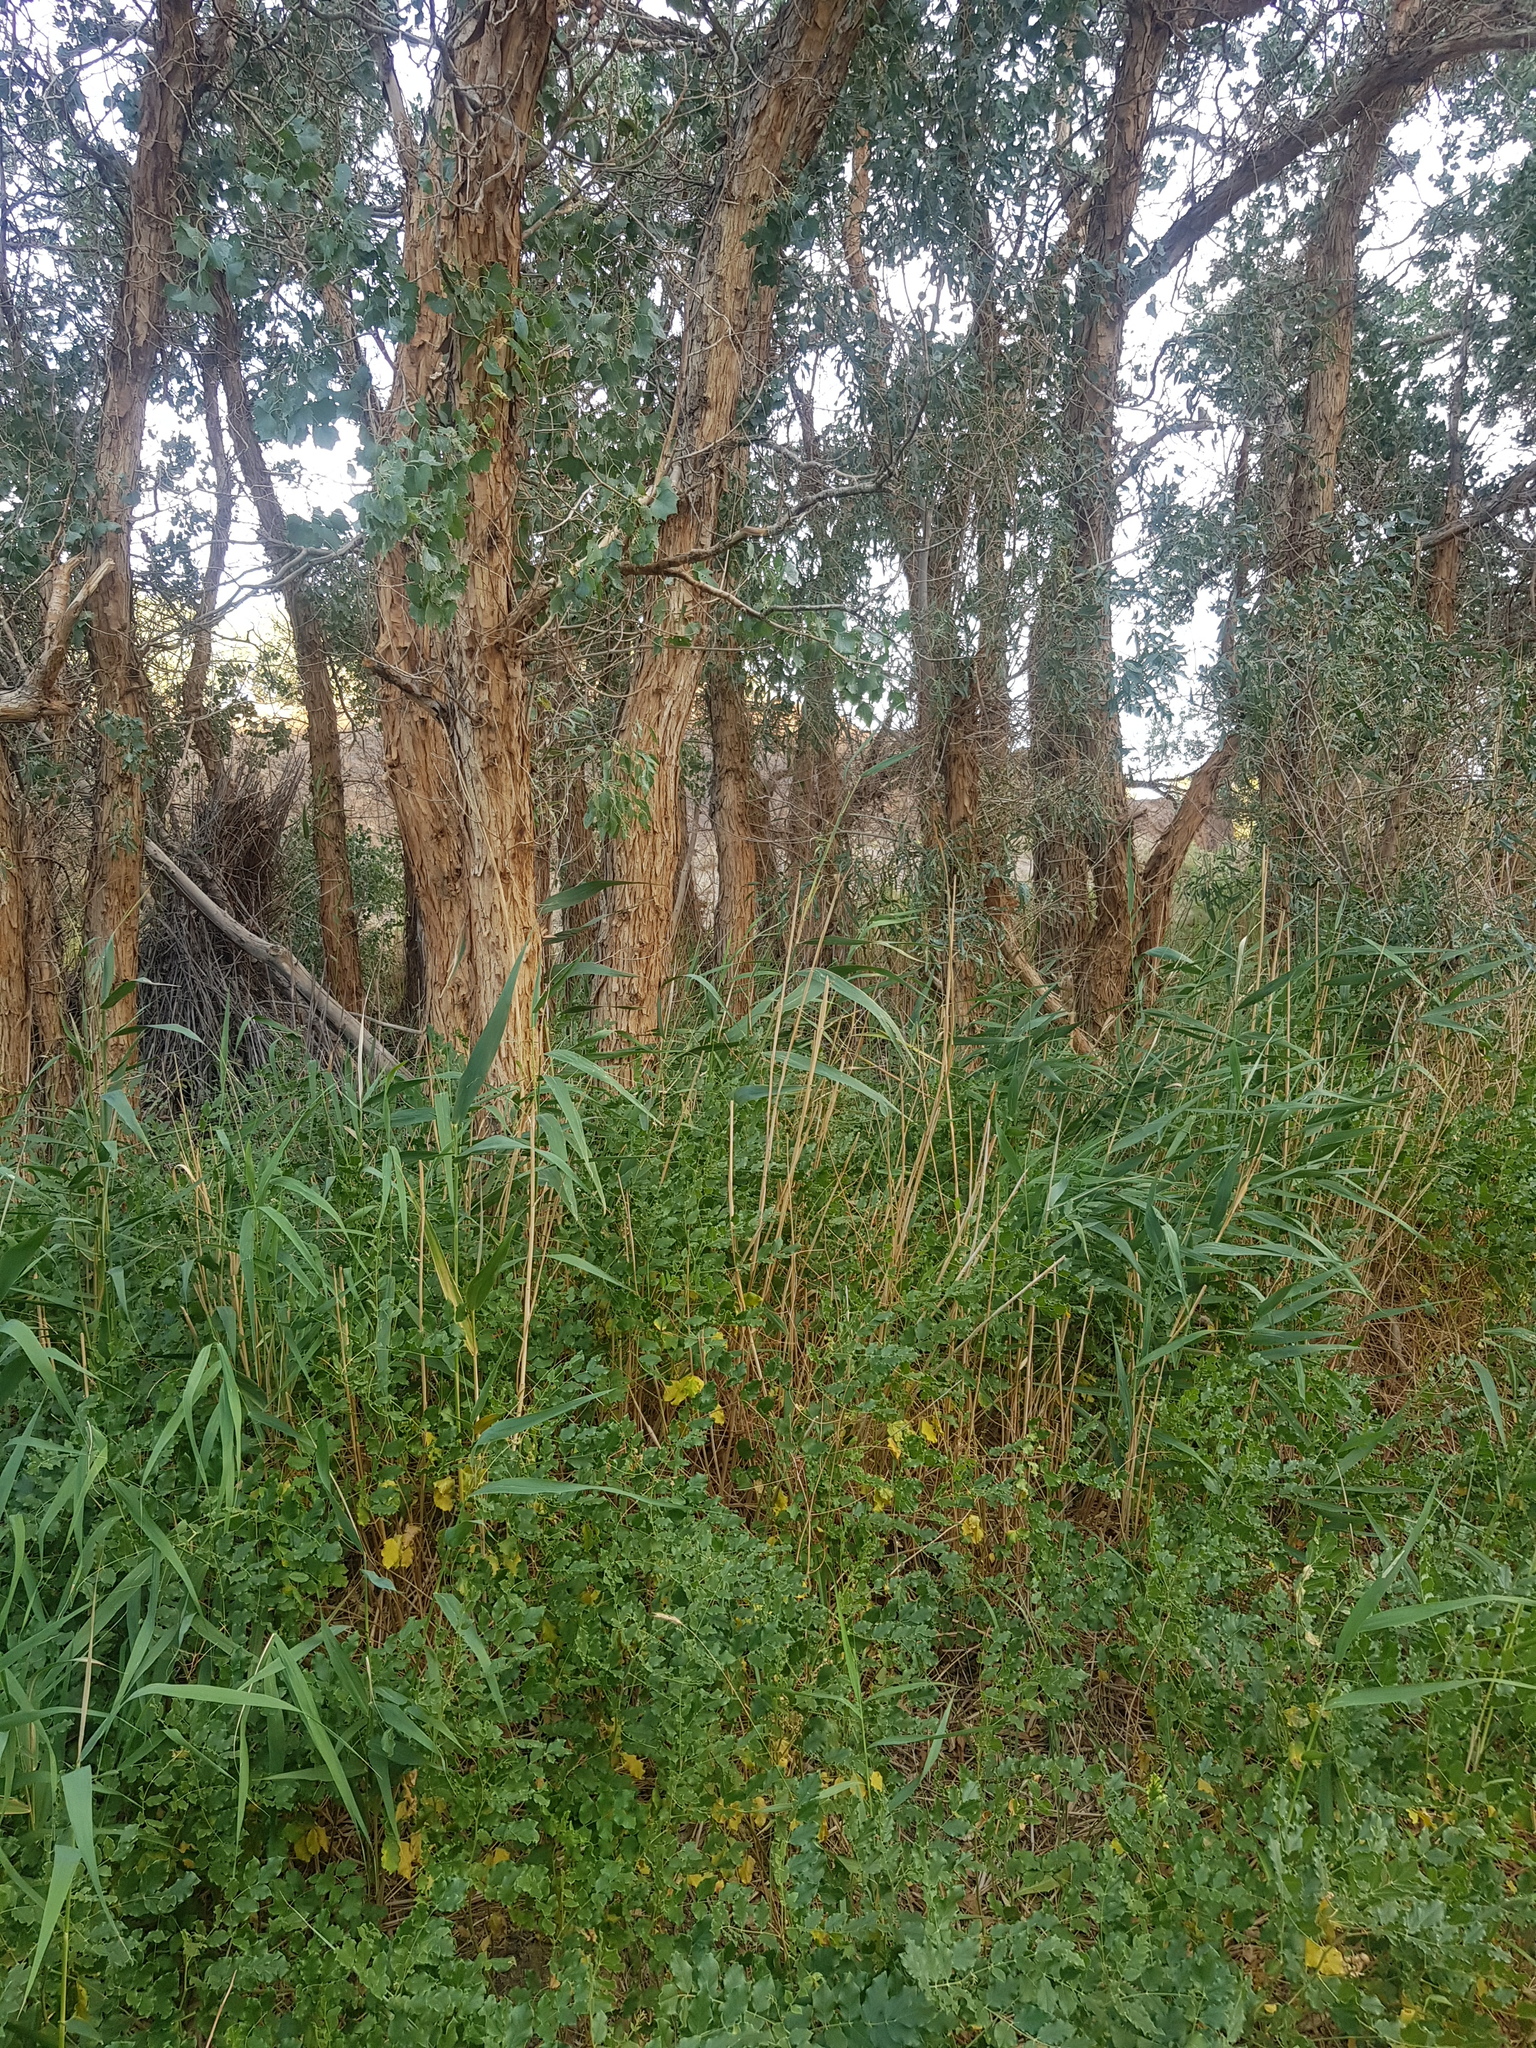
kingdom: Plantae
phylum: Tracheophyta
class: Magnoliopsida
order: Fabales
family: Fabaceae
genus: Glycyrrhiza
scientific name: Glycyrrhiza uralensis
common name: Chinese licorice
